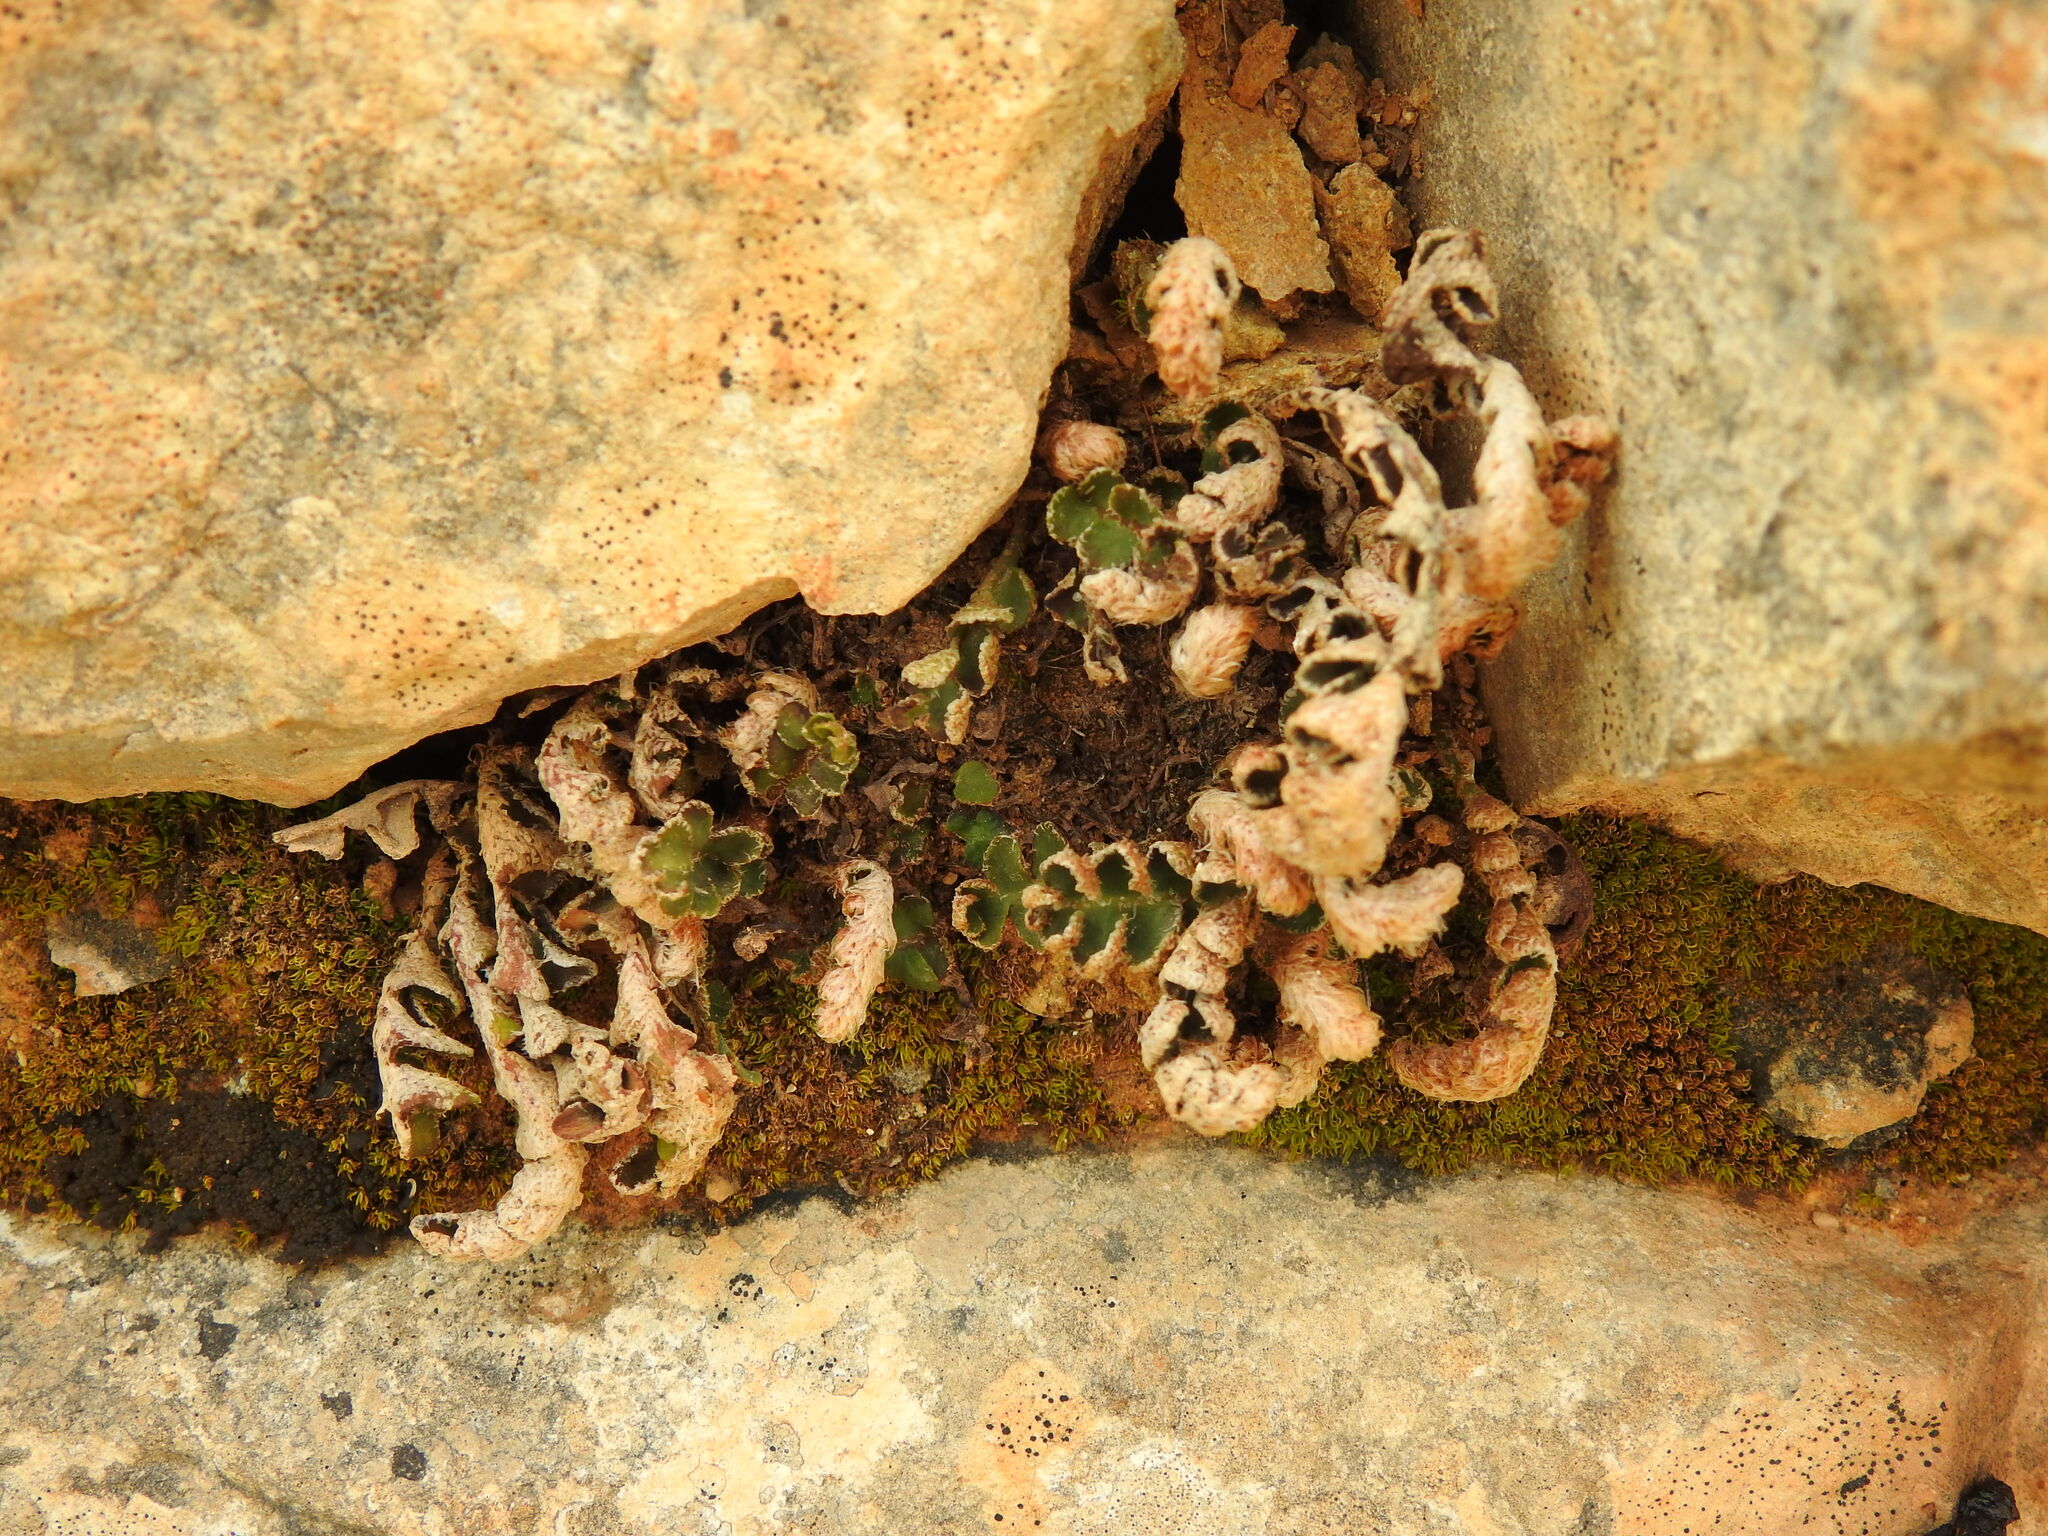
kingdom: Plantae
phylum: Tracheophyta
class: Polypodiopsida
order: Polypodiales
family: Aspleniaceae
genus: Asplenium
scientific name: Asplenium ceterach
